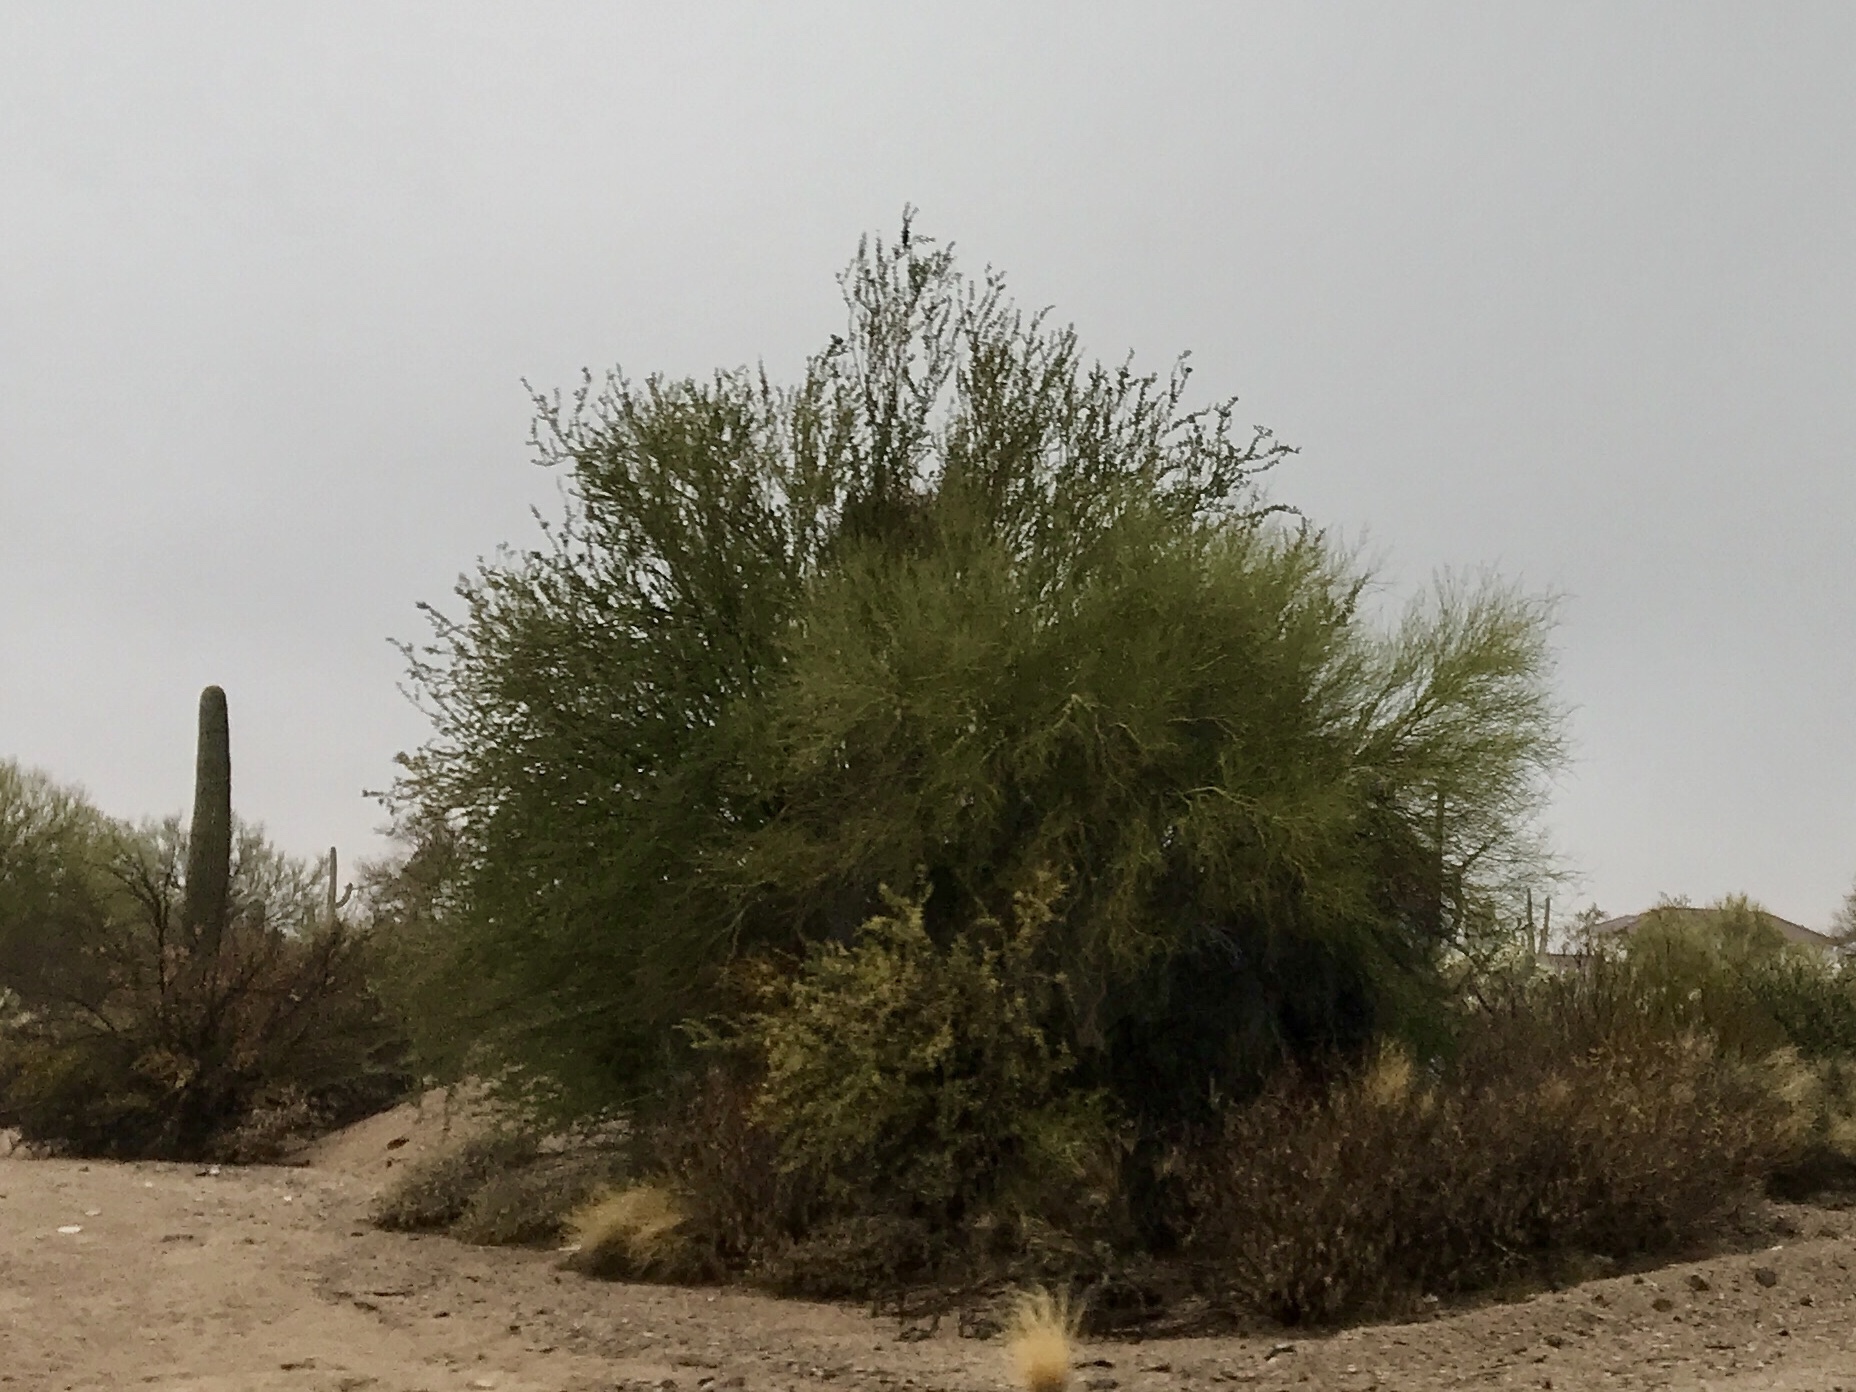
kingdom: Plantae
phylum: Tracheophyta
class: Magnoliopsida
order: Fabales
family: Fabaceae
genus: Parkinsonia
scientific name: Parkinsonia microphylla
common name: Yellow paloverde
